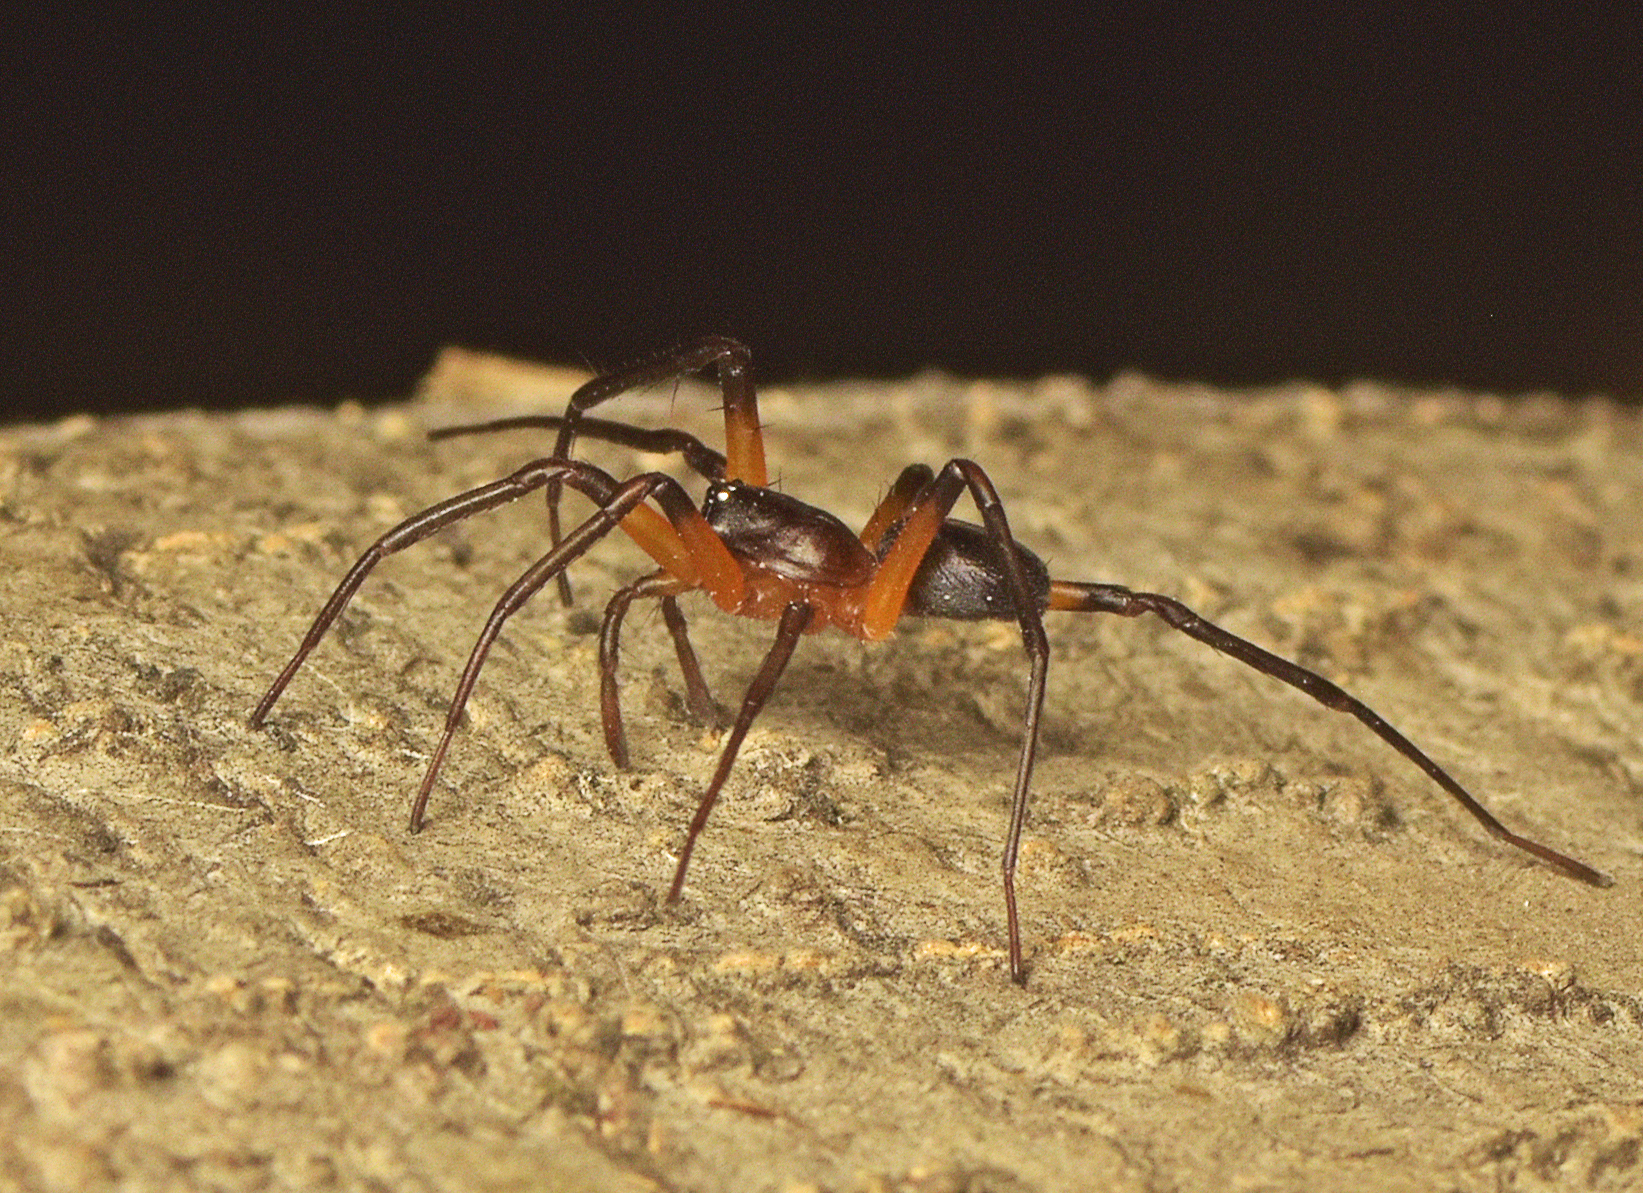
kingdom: Animalia
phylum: Arthropoda
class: Arachnida
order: Araneae
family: Corinnidae
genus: Medmassa
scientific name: Medmassa semiaurantiaca
